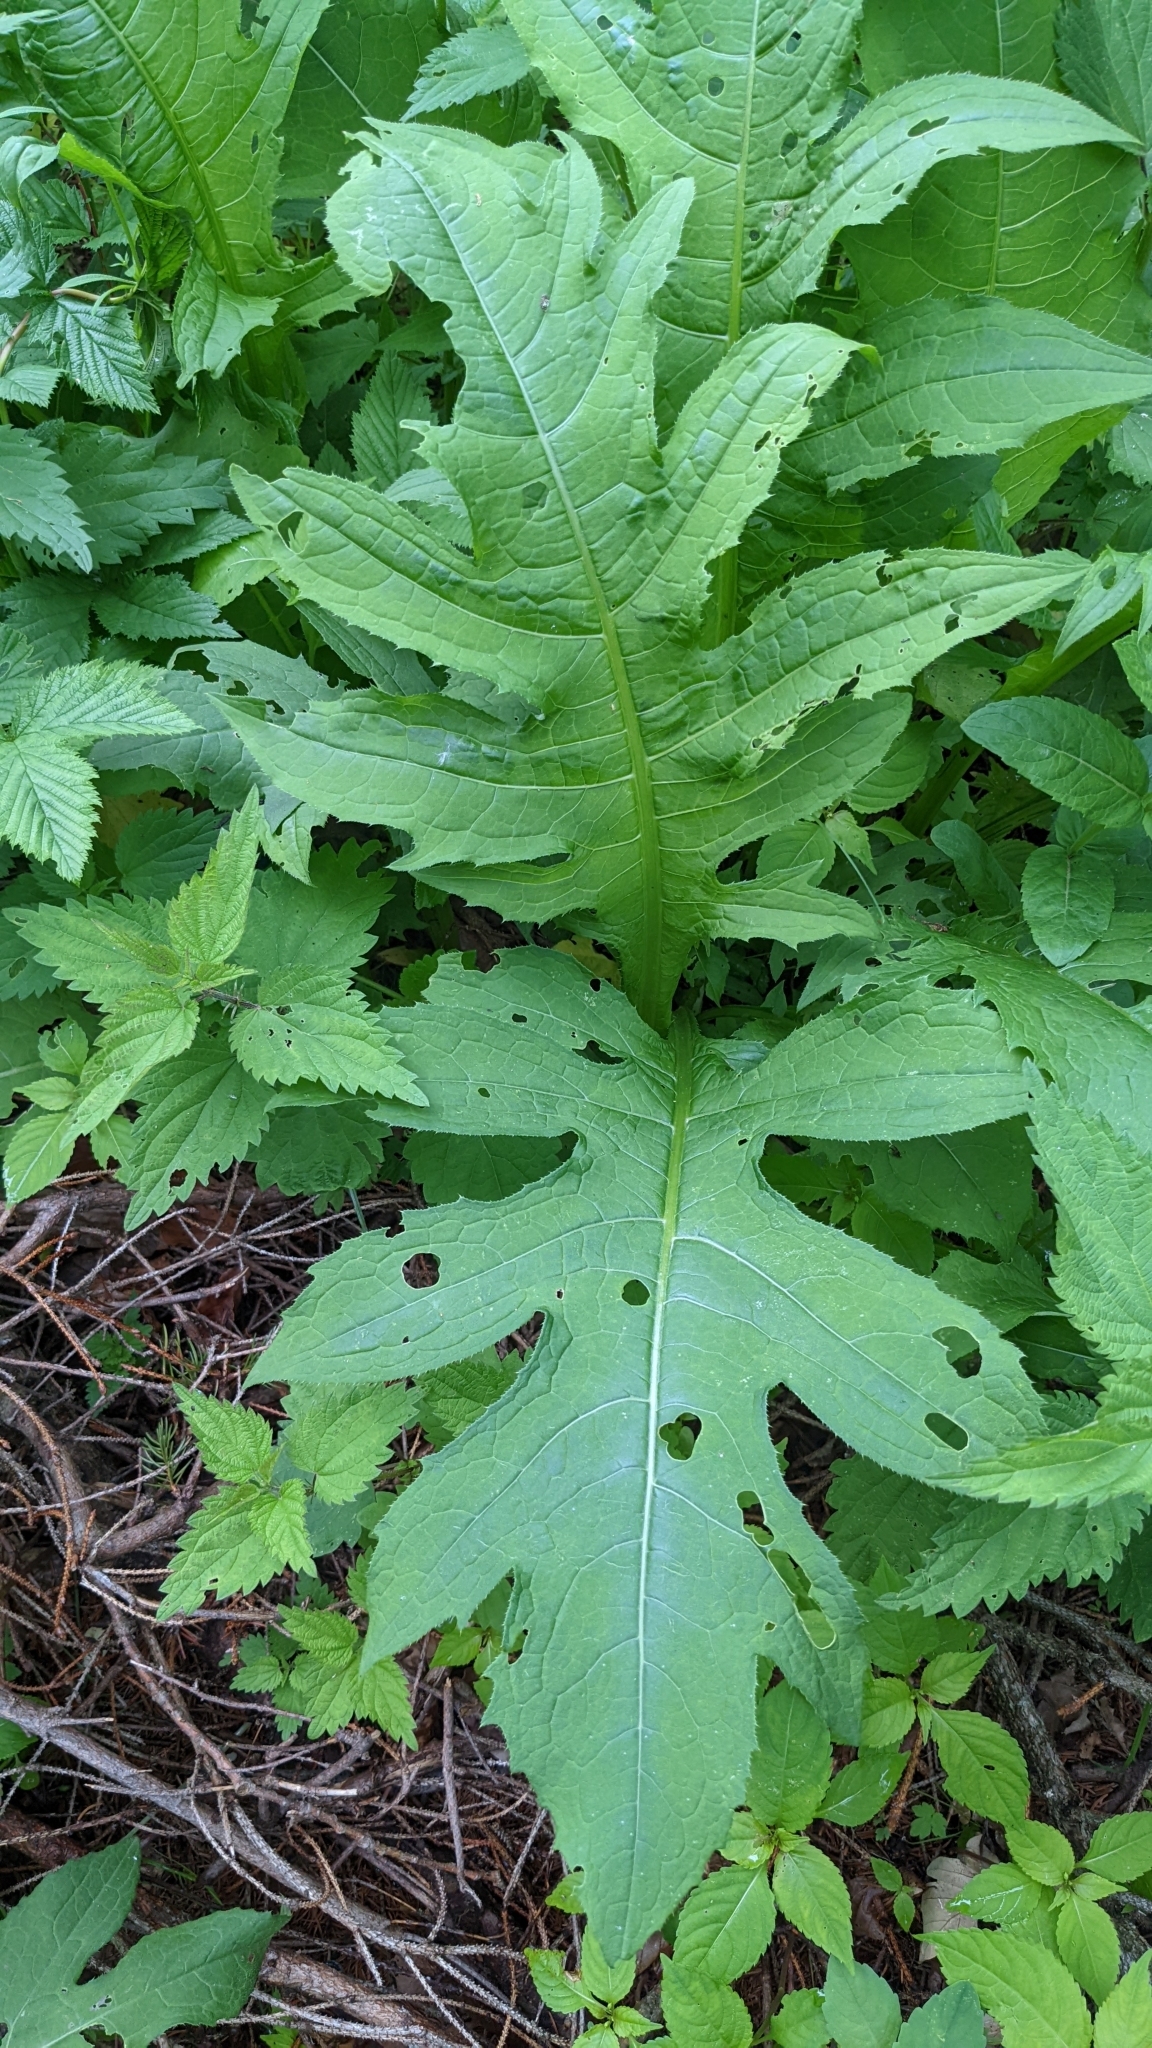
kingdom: Plantae
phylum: Tracheophyta
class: Magnoliopsida
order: Asterales
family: Asteraceae
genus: Cirsium
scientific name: Cirsium oleraceum
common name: Cabbage thistle
